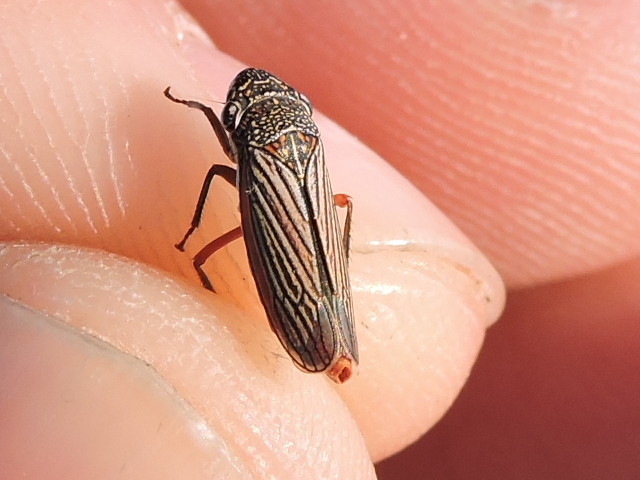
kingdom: Animalia
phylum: Arthropoda
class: Insecta
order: Hemiptera
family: Cicadellidae
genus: Cuerna
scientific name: Cuerna costalis
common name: Lateral-lined sharpshooter
